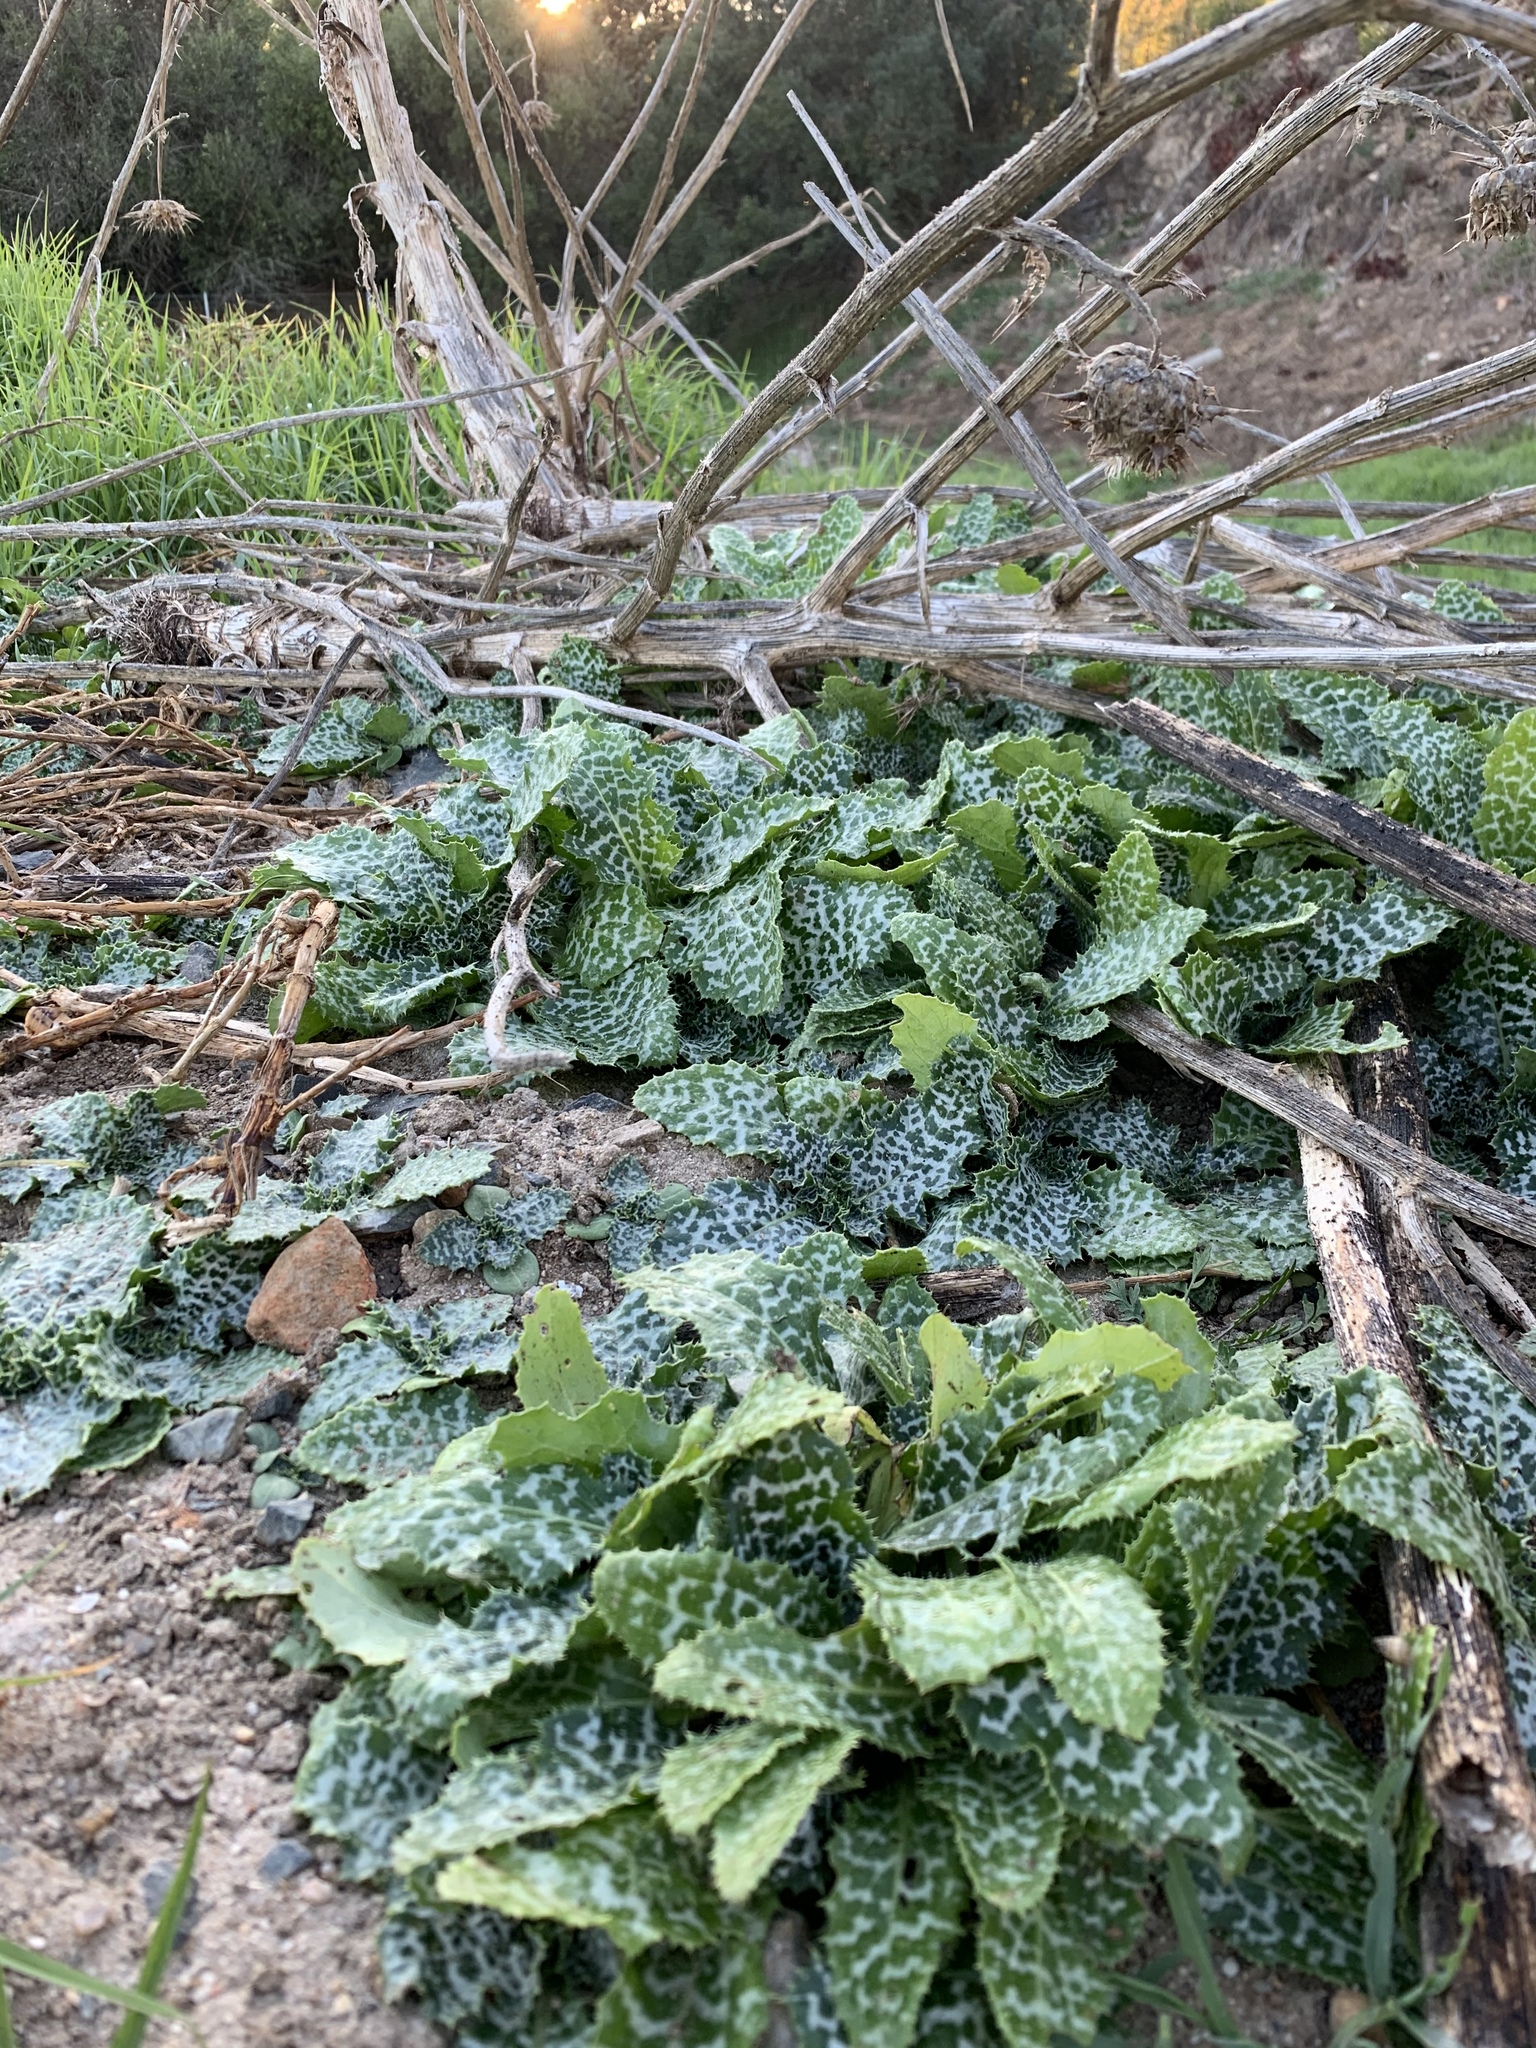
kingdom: Plantae
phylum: Tracheophyta
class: Magnoliopsida
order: Asterales
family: Asteraceae
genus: Silybum
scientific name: Silybum marianum
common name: Milk thistle
